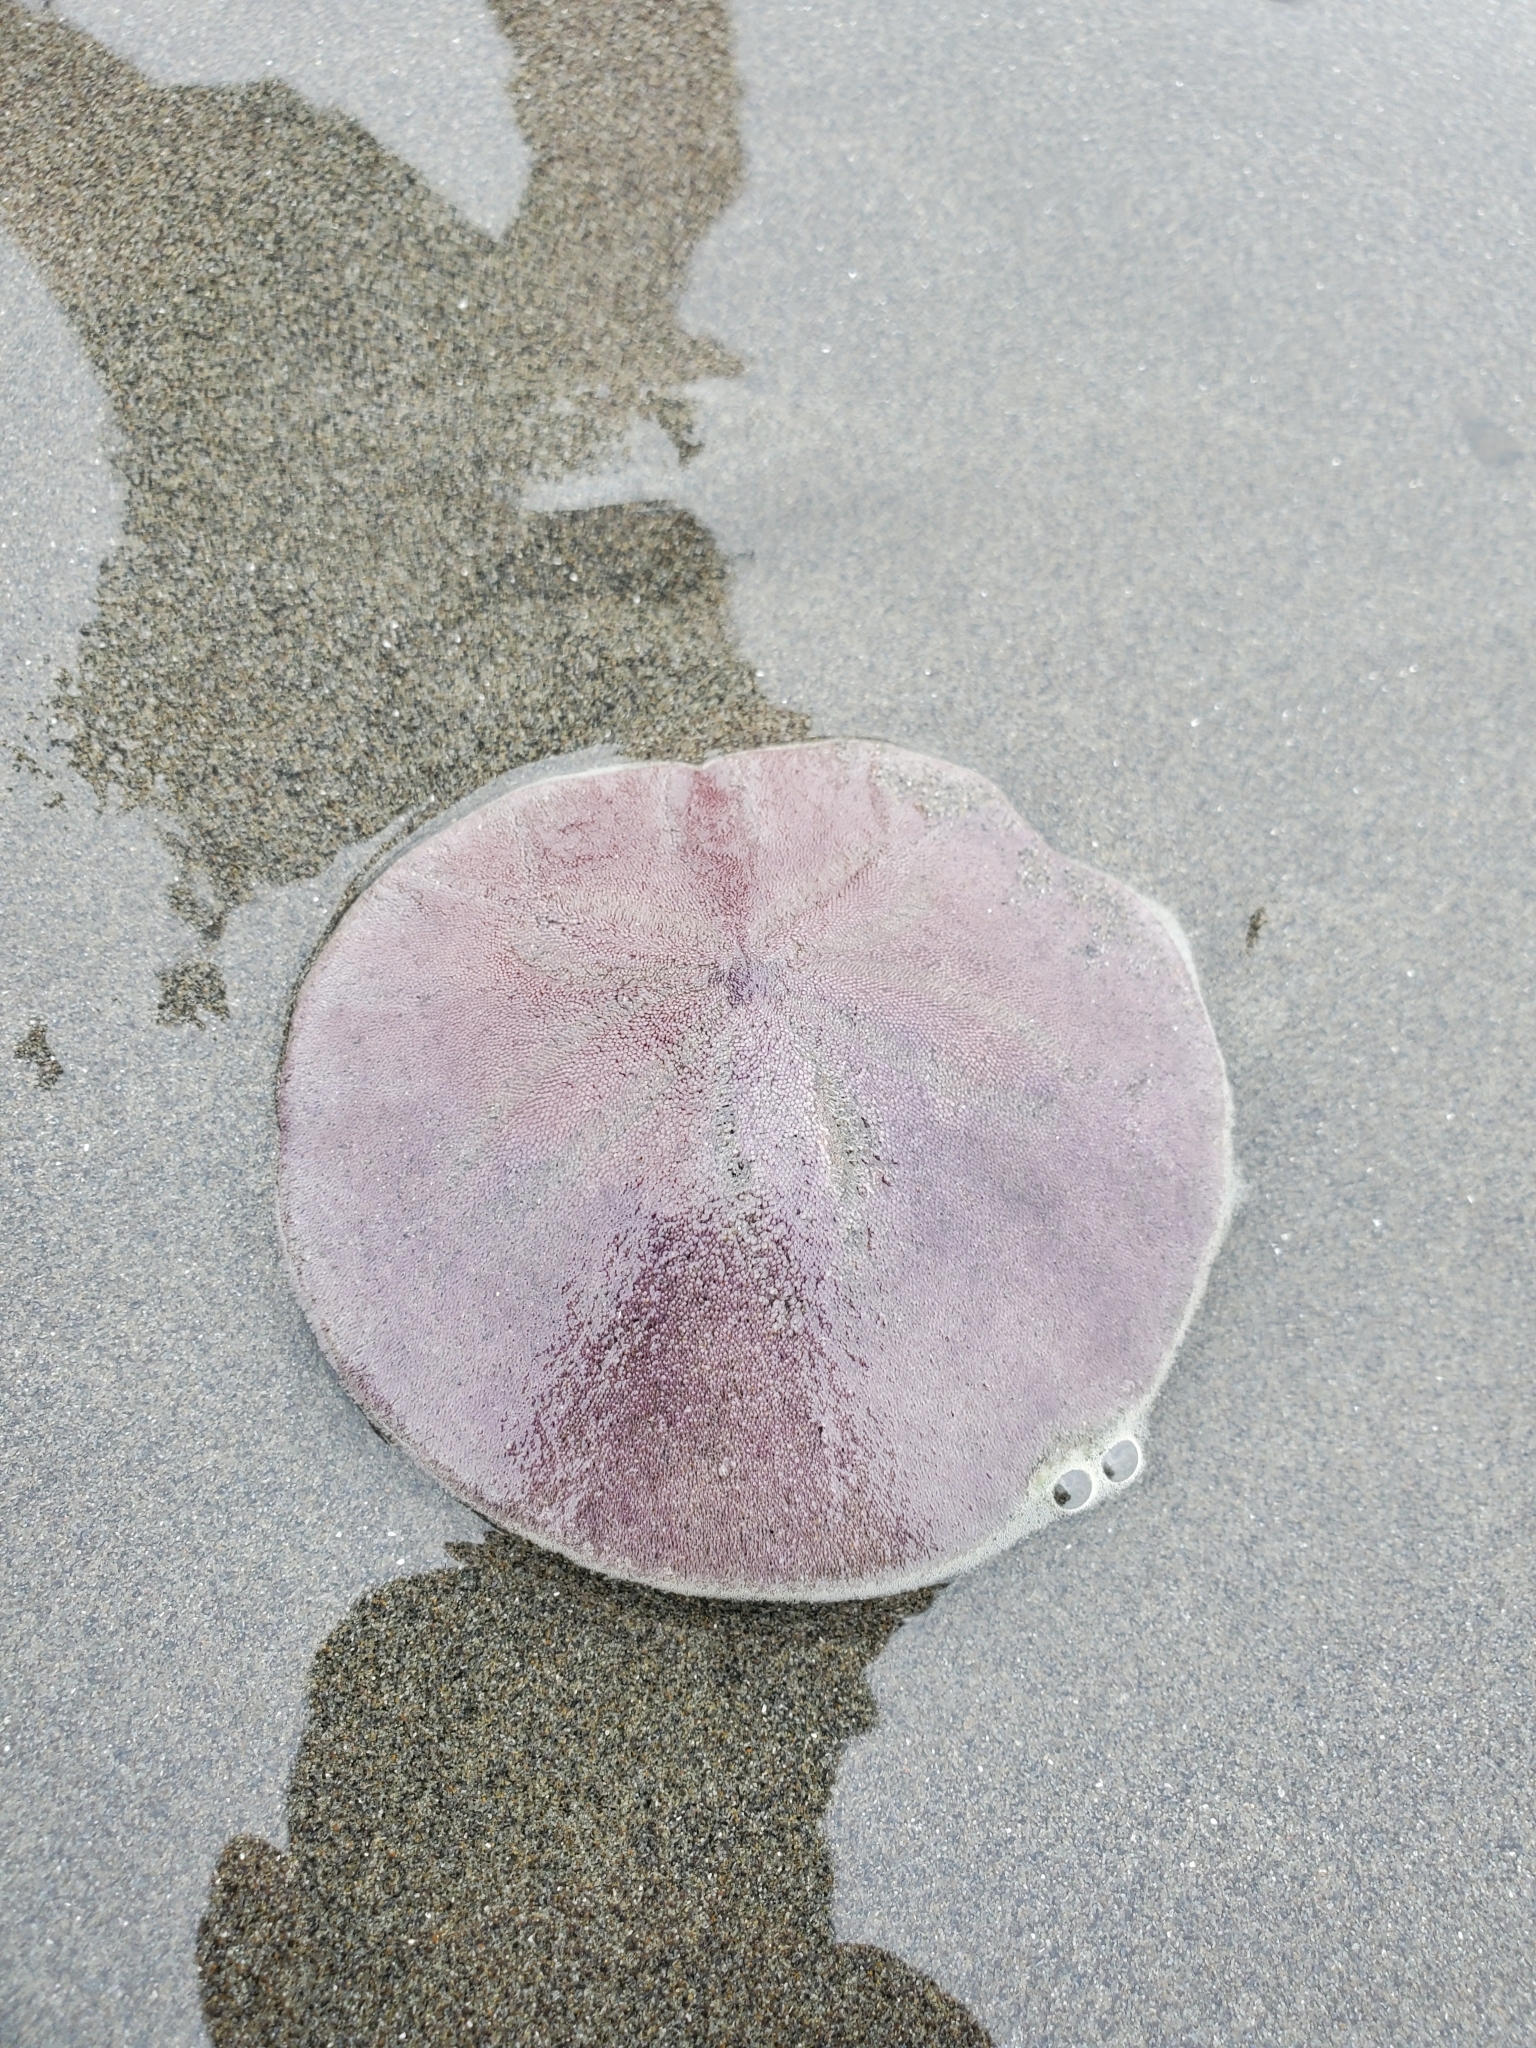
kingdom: Animalia
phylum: Echinodermata
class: Echinoidea
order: Echinolampadacea
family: Dendrasteridae
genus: Dendraster
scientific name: Dendraster excentricus
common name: Eccentric sand dollar sea urchin
